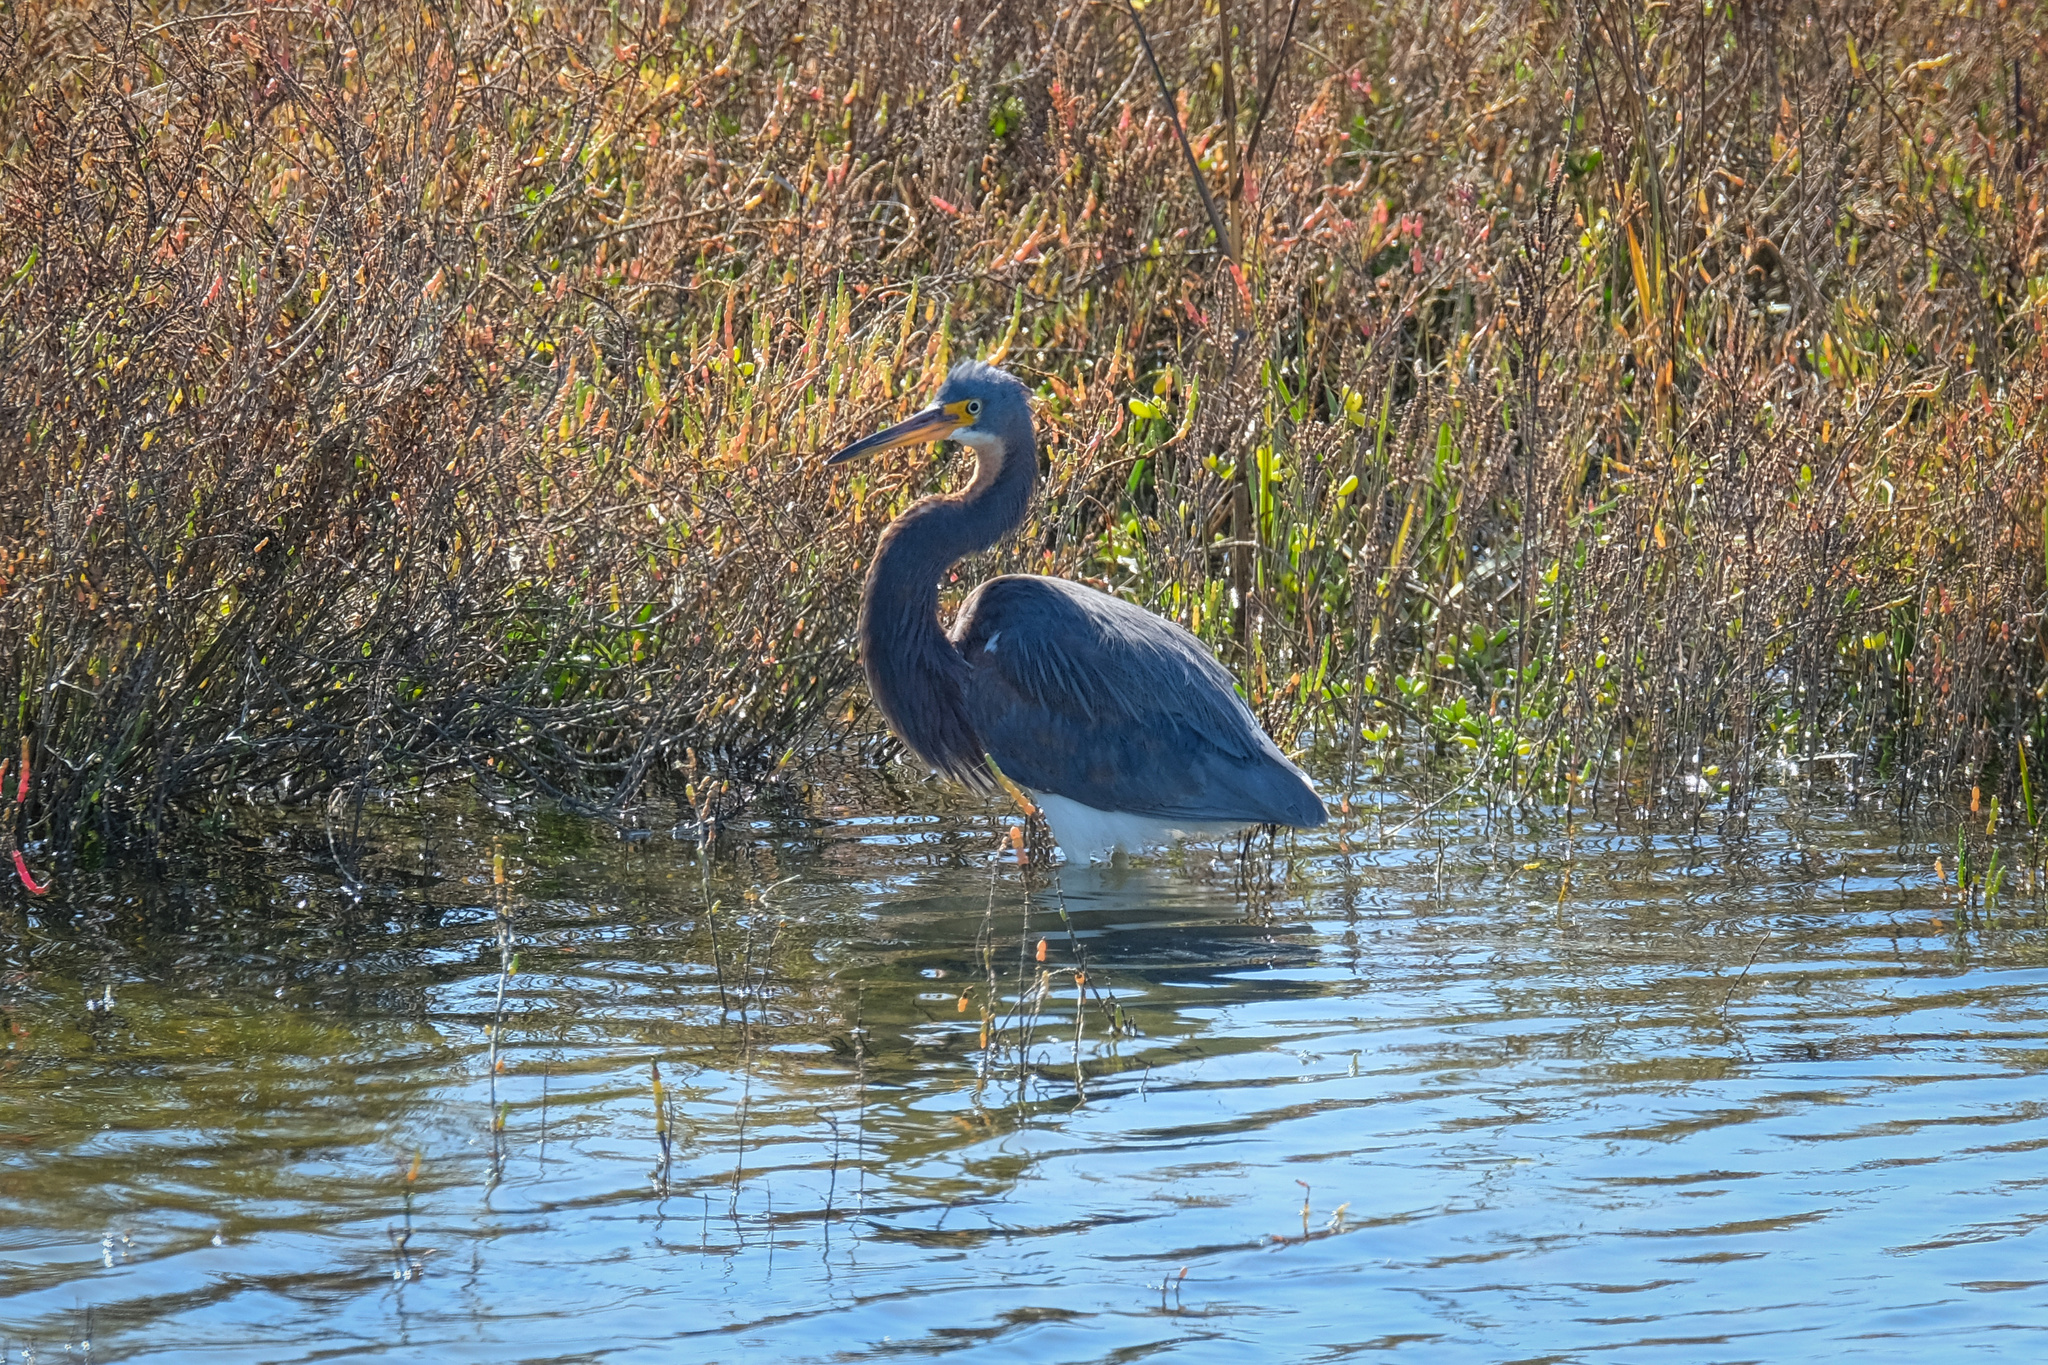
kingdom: Animalia
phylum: Chordata
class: Aves
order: Pelecaniformes
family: Ardeidae
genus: Egretta
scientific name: Egretta tricolor
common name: Tricolored heron
